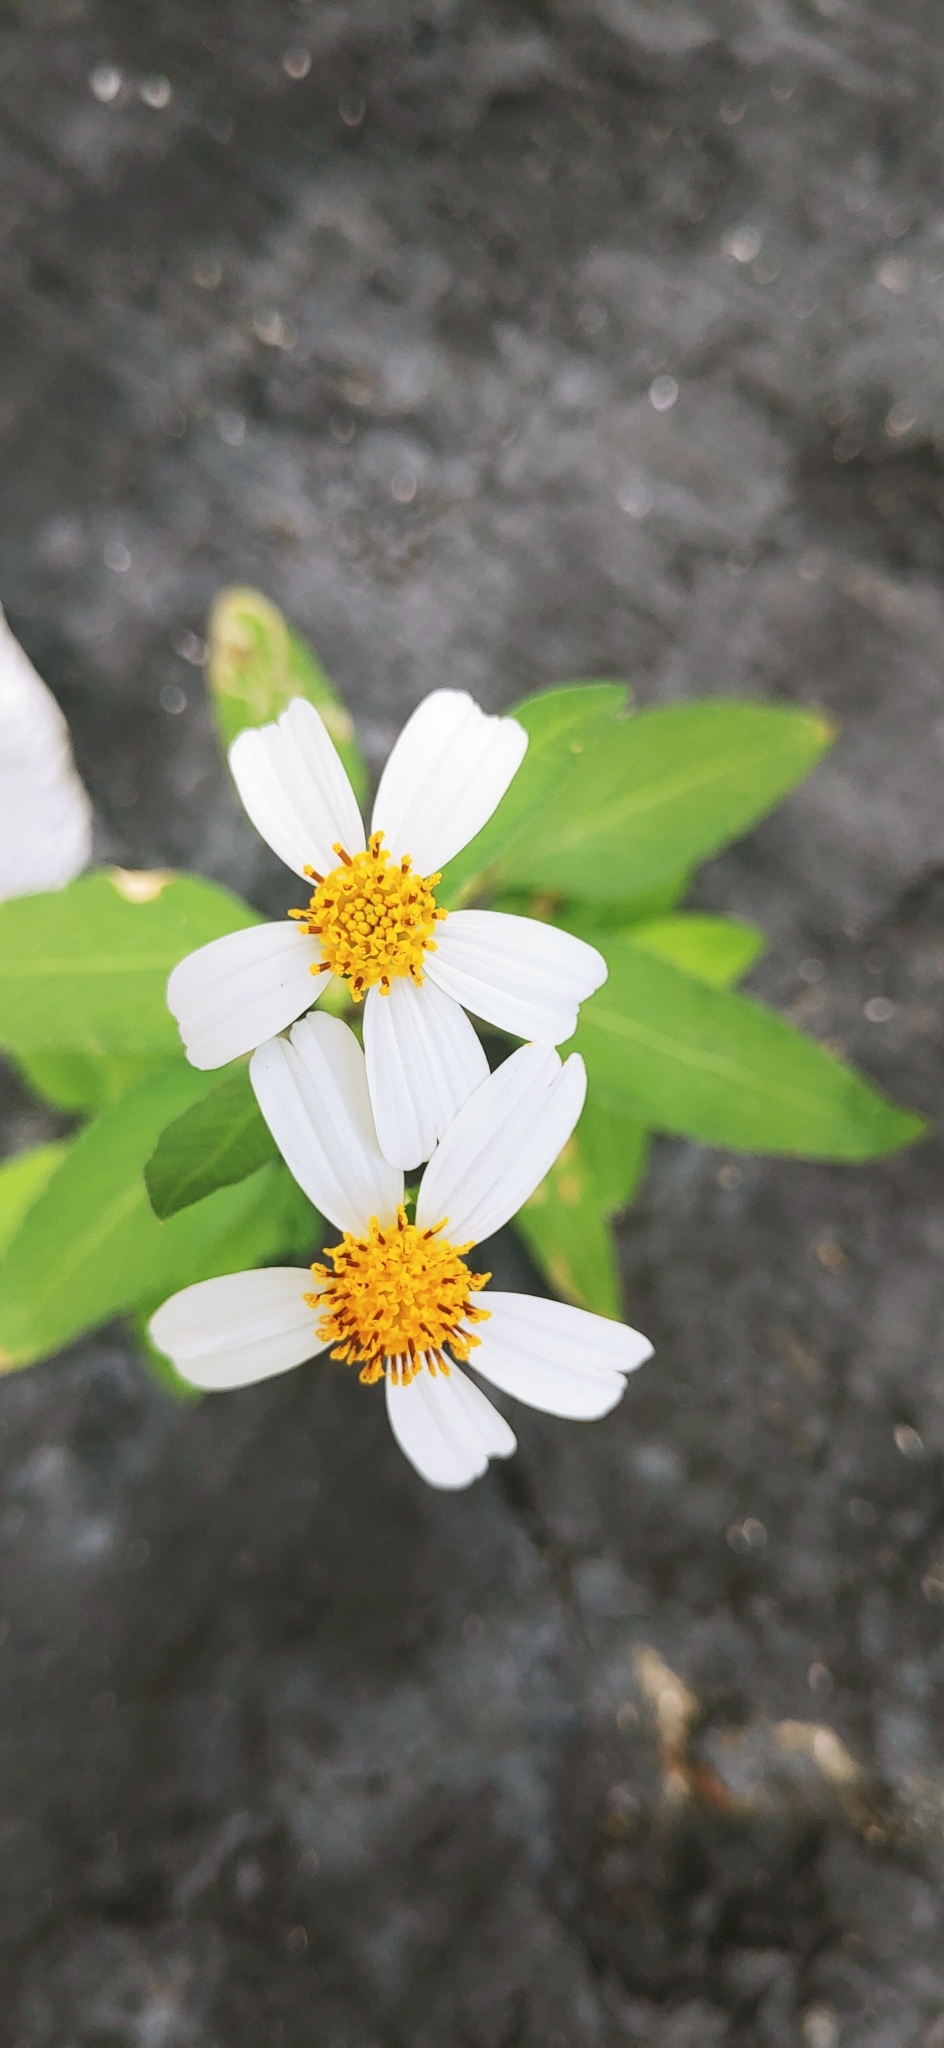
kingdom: Plantae
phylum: Tracheophyta
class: Magnoliopsida
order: Asterales
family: Asteraceae
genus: Bidens
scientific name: Bidens alba
